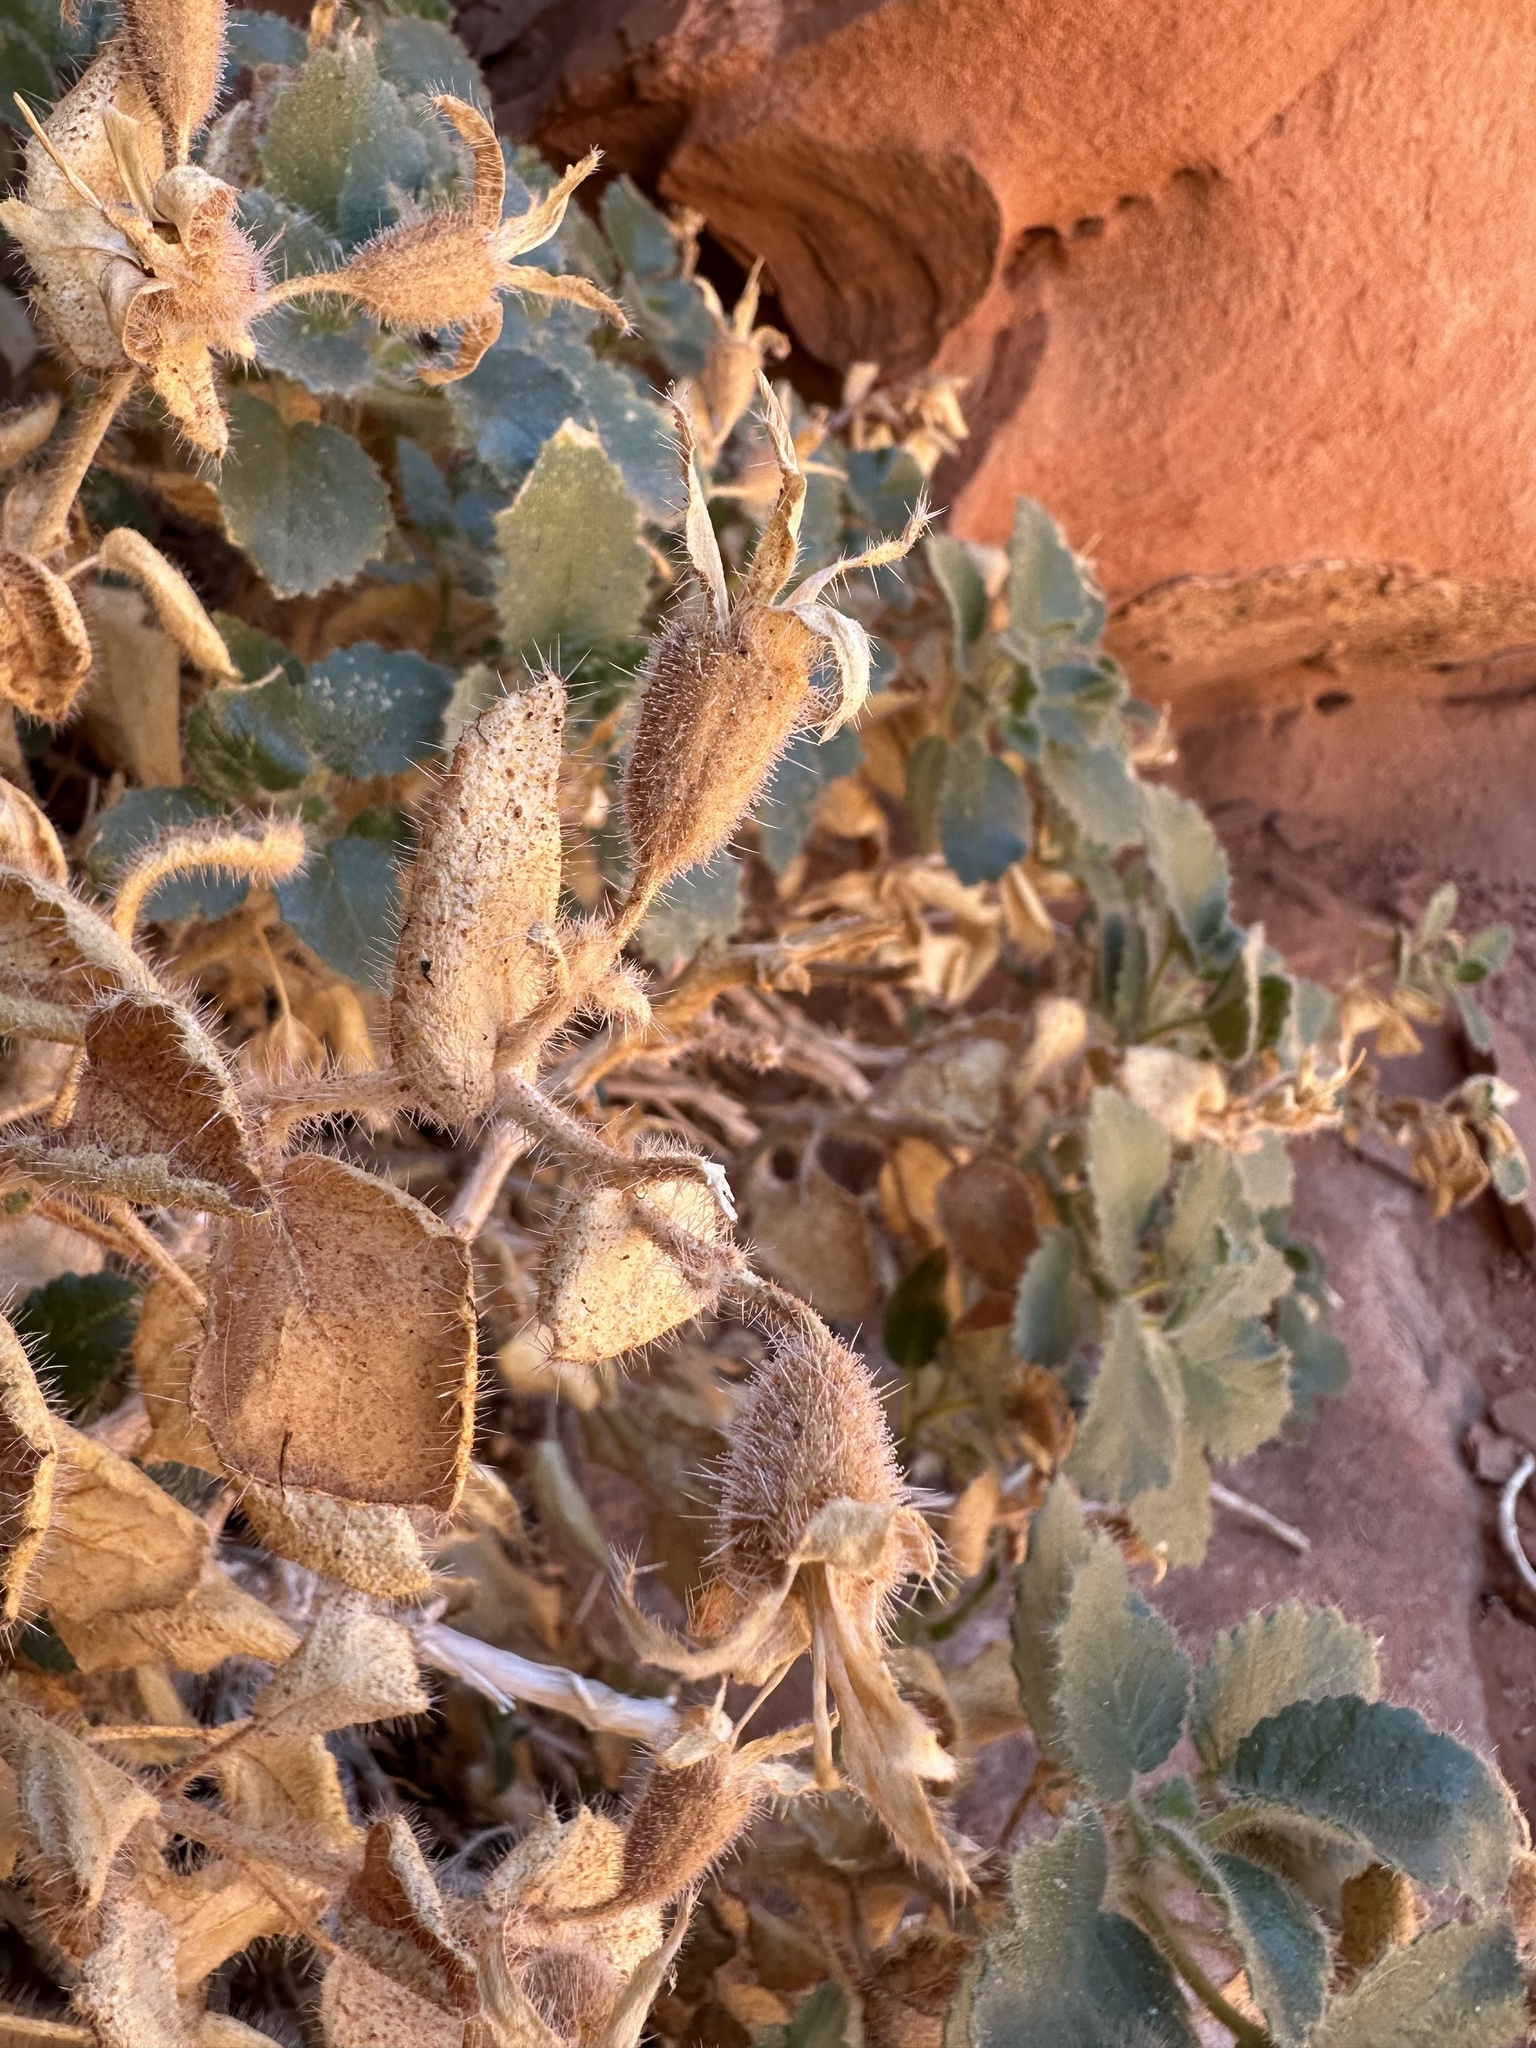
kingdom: Plantae
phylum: Tracheophyta
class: Magnoliopsida
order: Cornales
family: Loasaceae
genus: Eucnide
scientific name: Eucnide urens
